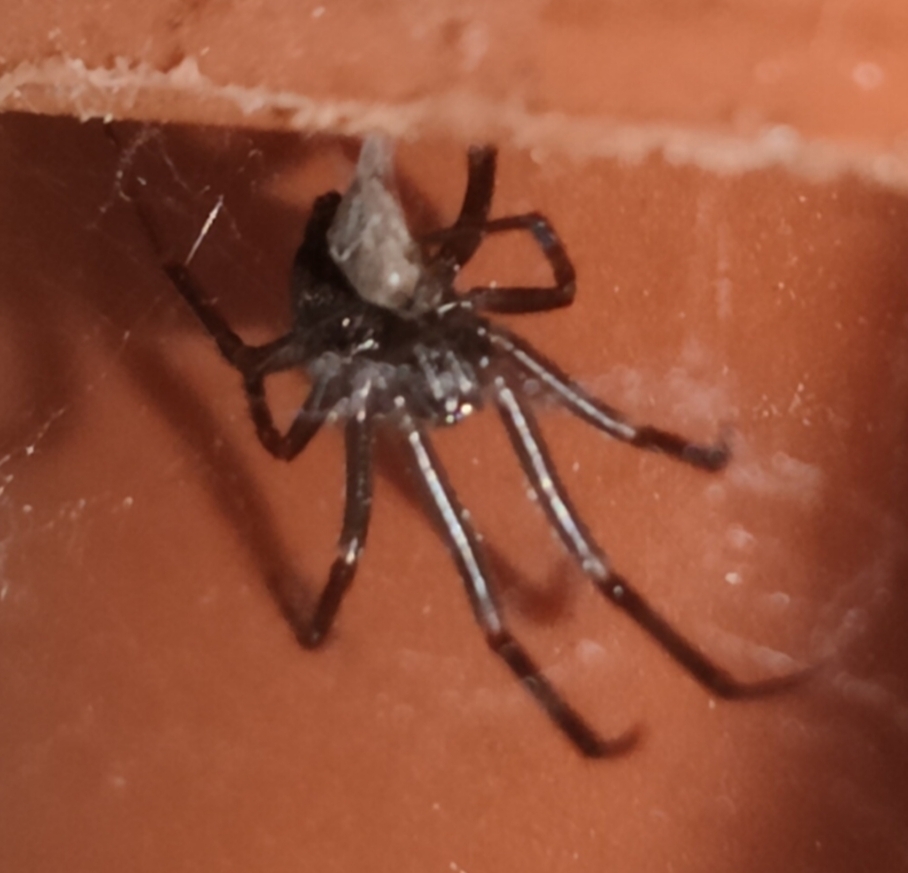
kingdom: Animalia
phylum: Arthropoda
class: Arachnida
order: Araneae
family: Theridiidae
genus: Steatoda
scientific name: Steatoda grossa
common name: False black widow
